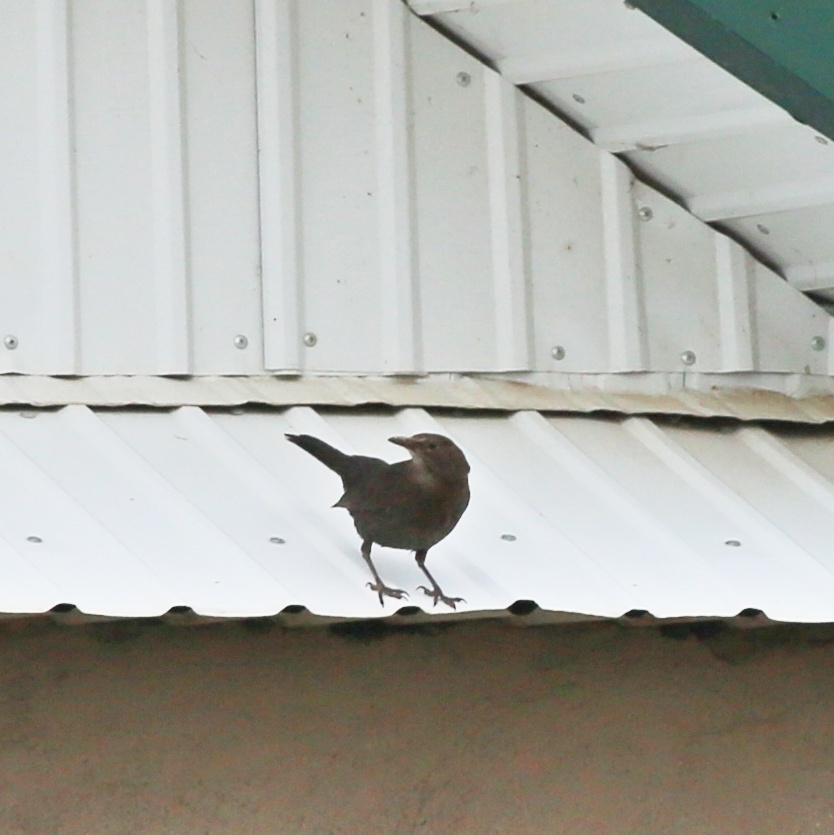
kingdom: Animalia
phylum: Chordata
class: Aves
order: Passeriformes
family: Turdidae
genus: Turdus
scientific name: Turdus merula
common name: Common blackbird
